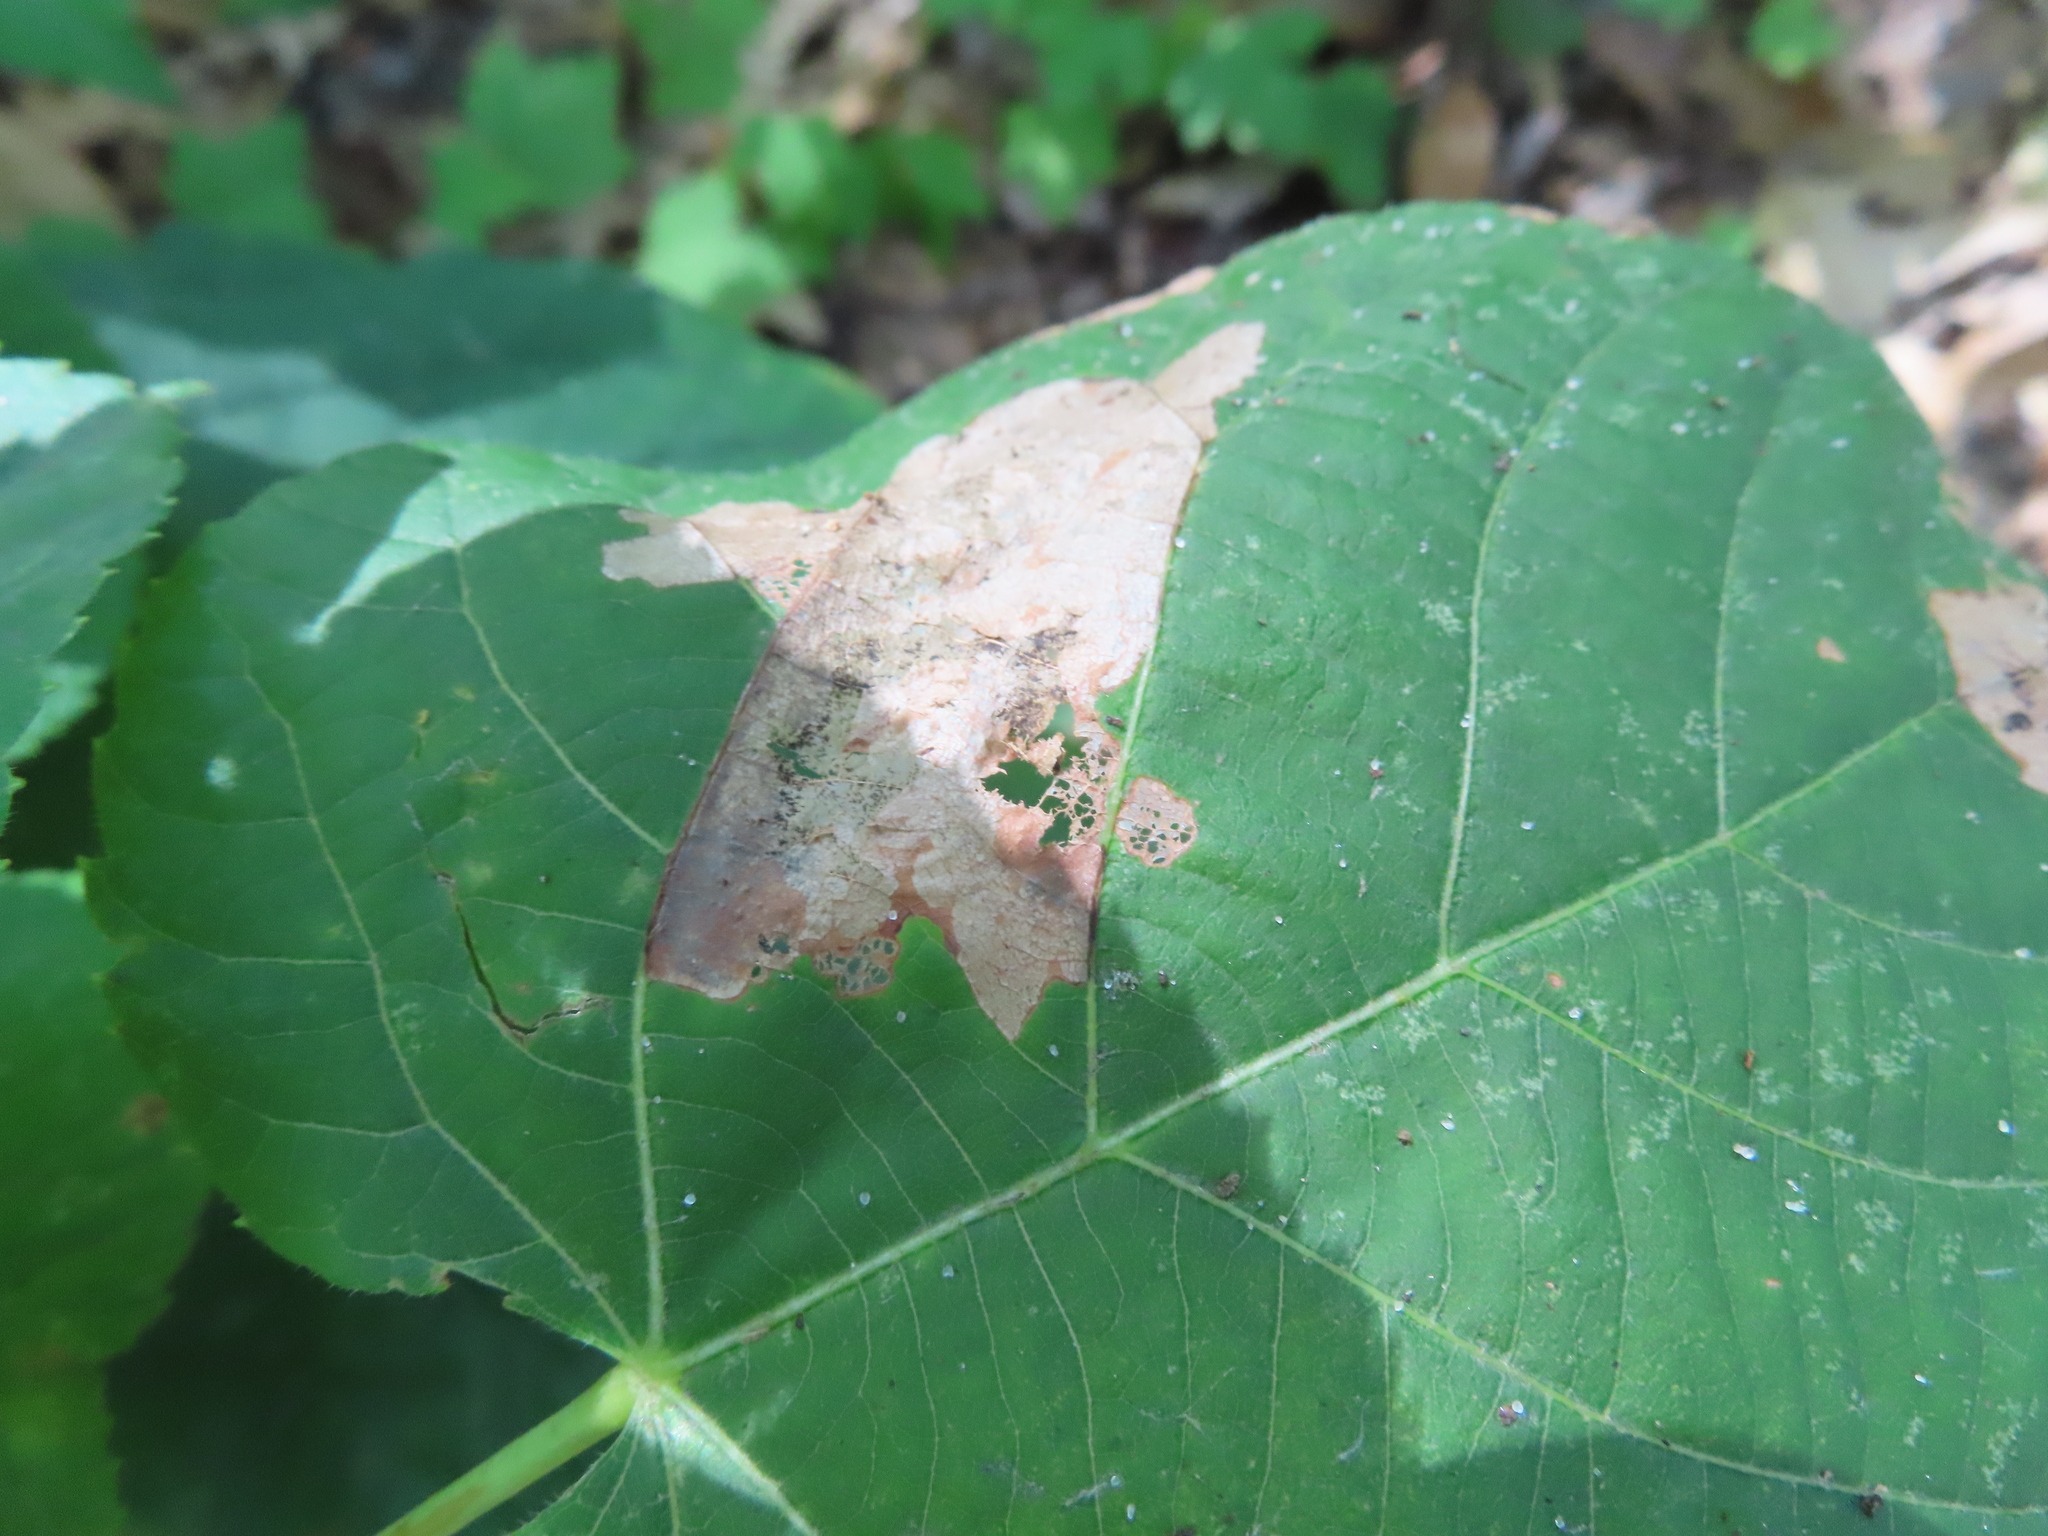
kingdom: Animalia
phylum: Arthropoda
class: Insecta
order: Coleoptera
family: Chrysomelidae
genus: Baliosus
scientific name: Baliosus nervosus
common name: Basswood leaf miner
